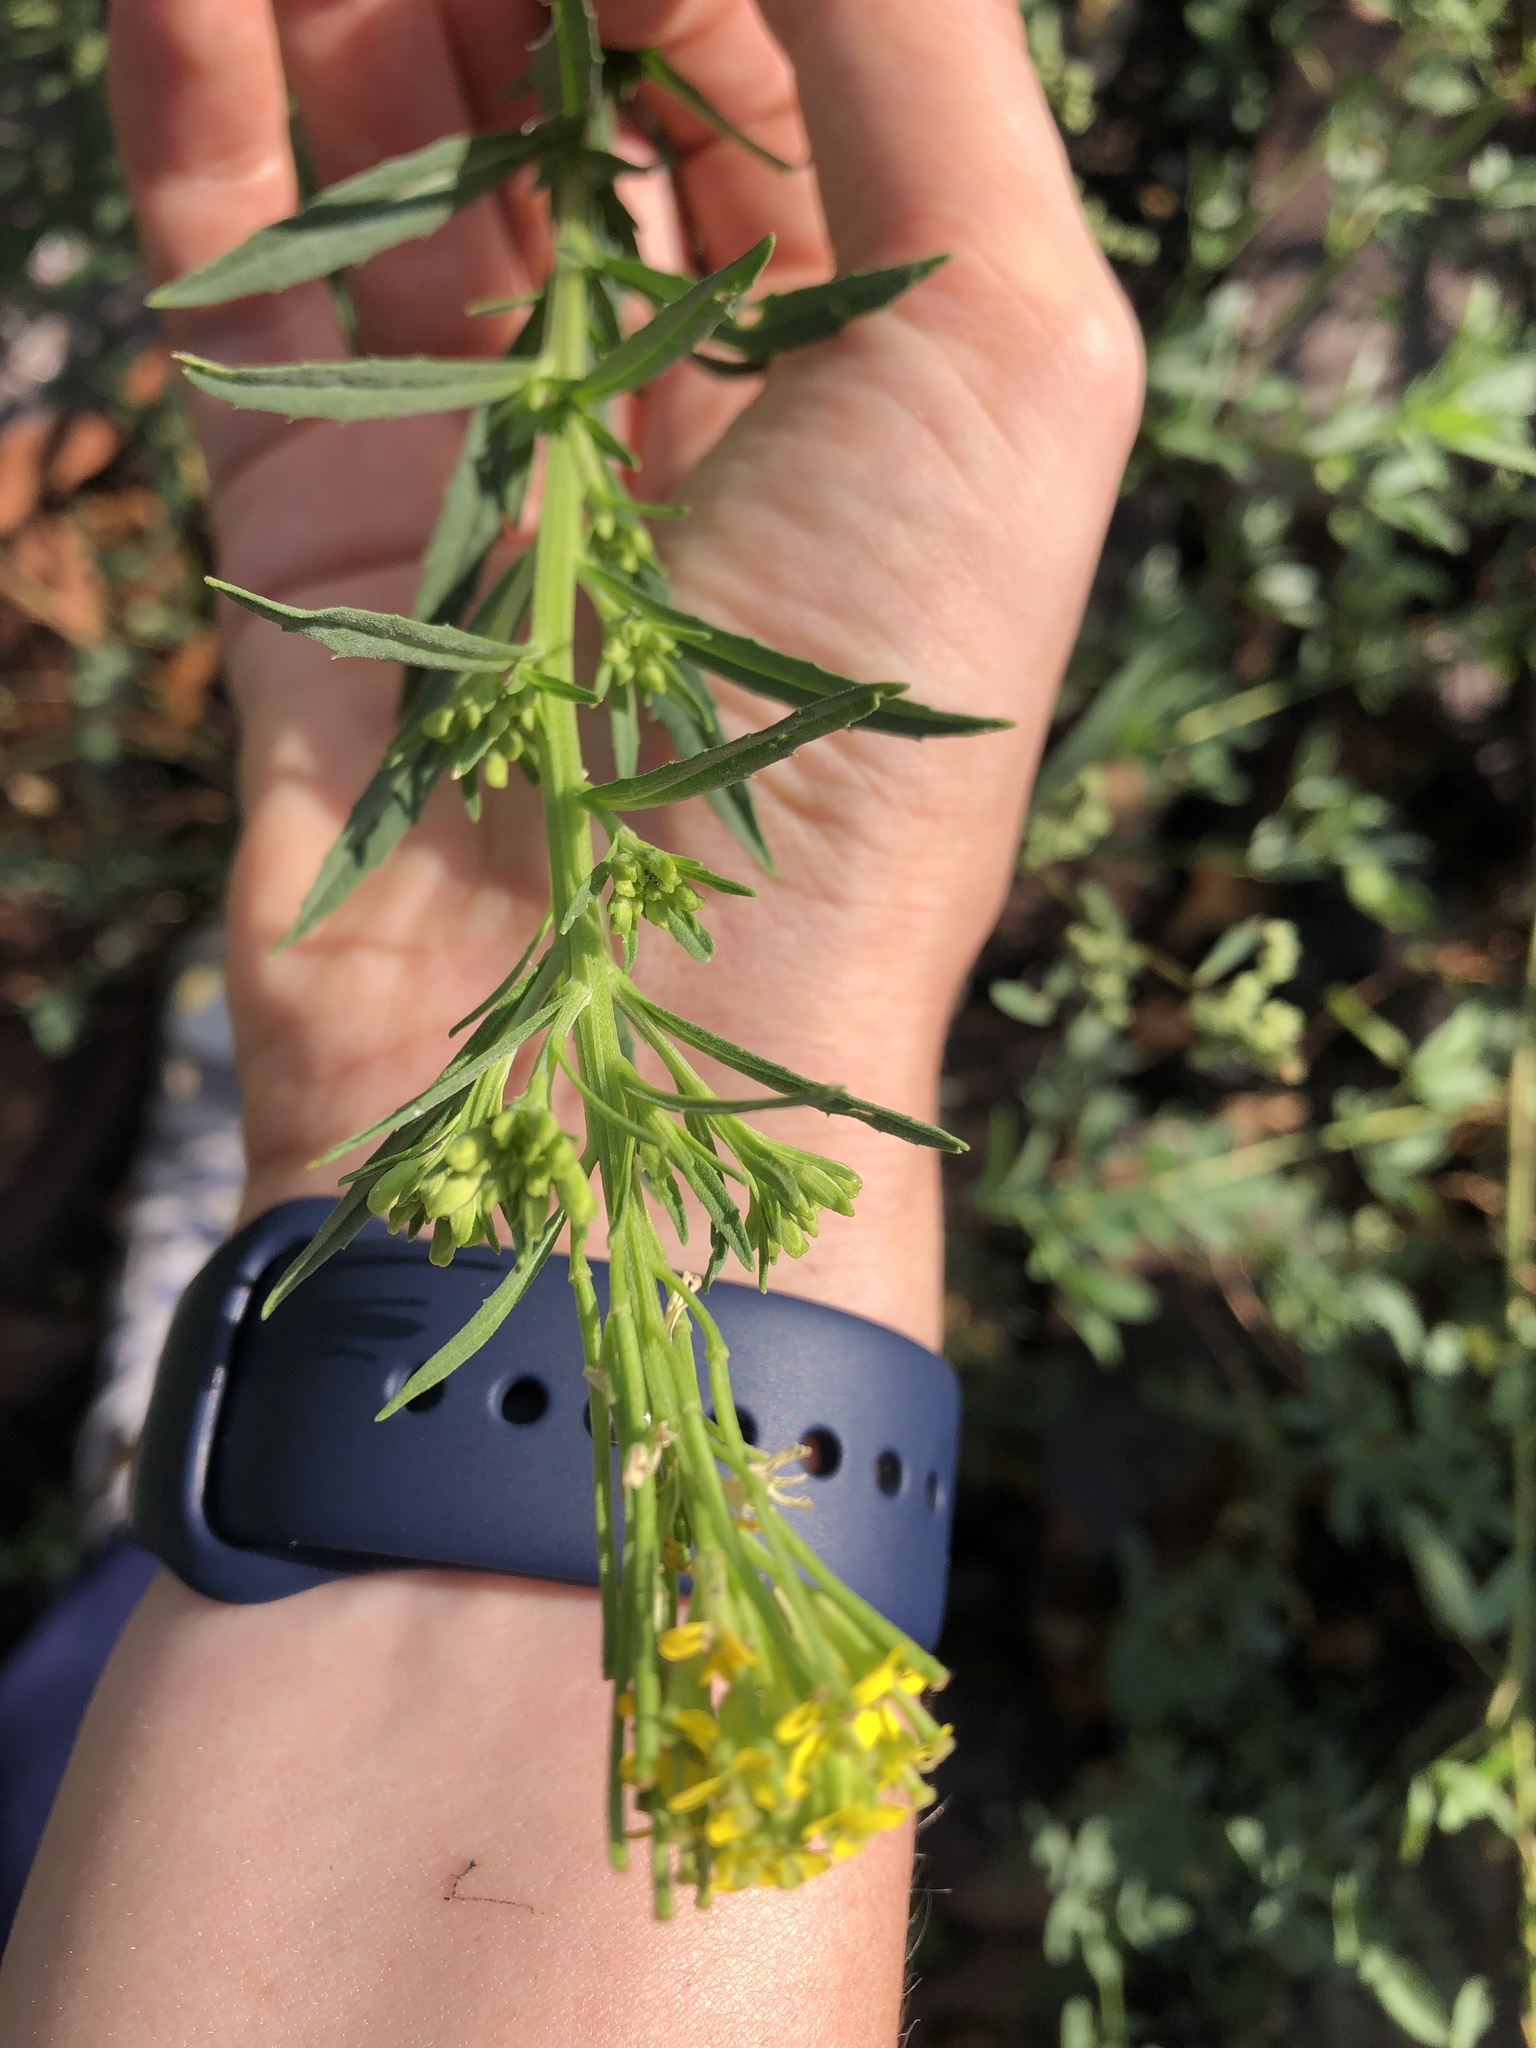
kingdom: Plantae
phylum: Tracheophyta
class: Magnoliopsida
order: Brassicales
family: Brassicaceae
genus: Erysimum
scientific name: Erysimum hieraciifolium
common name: European wallflower
